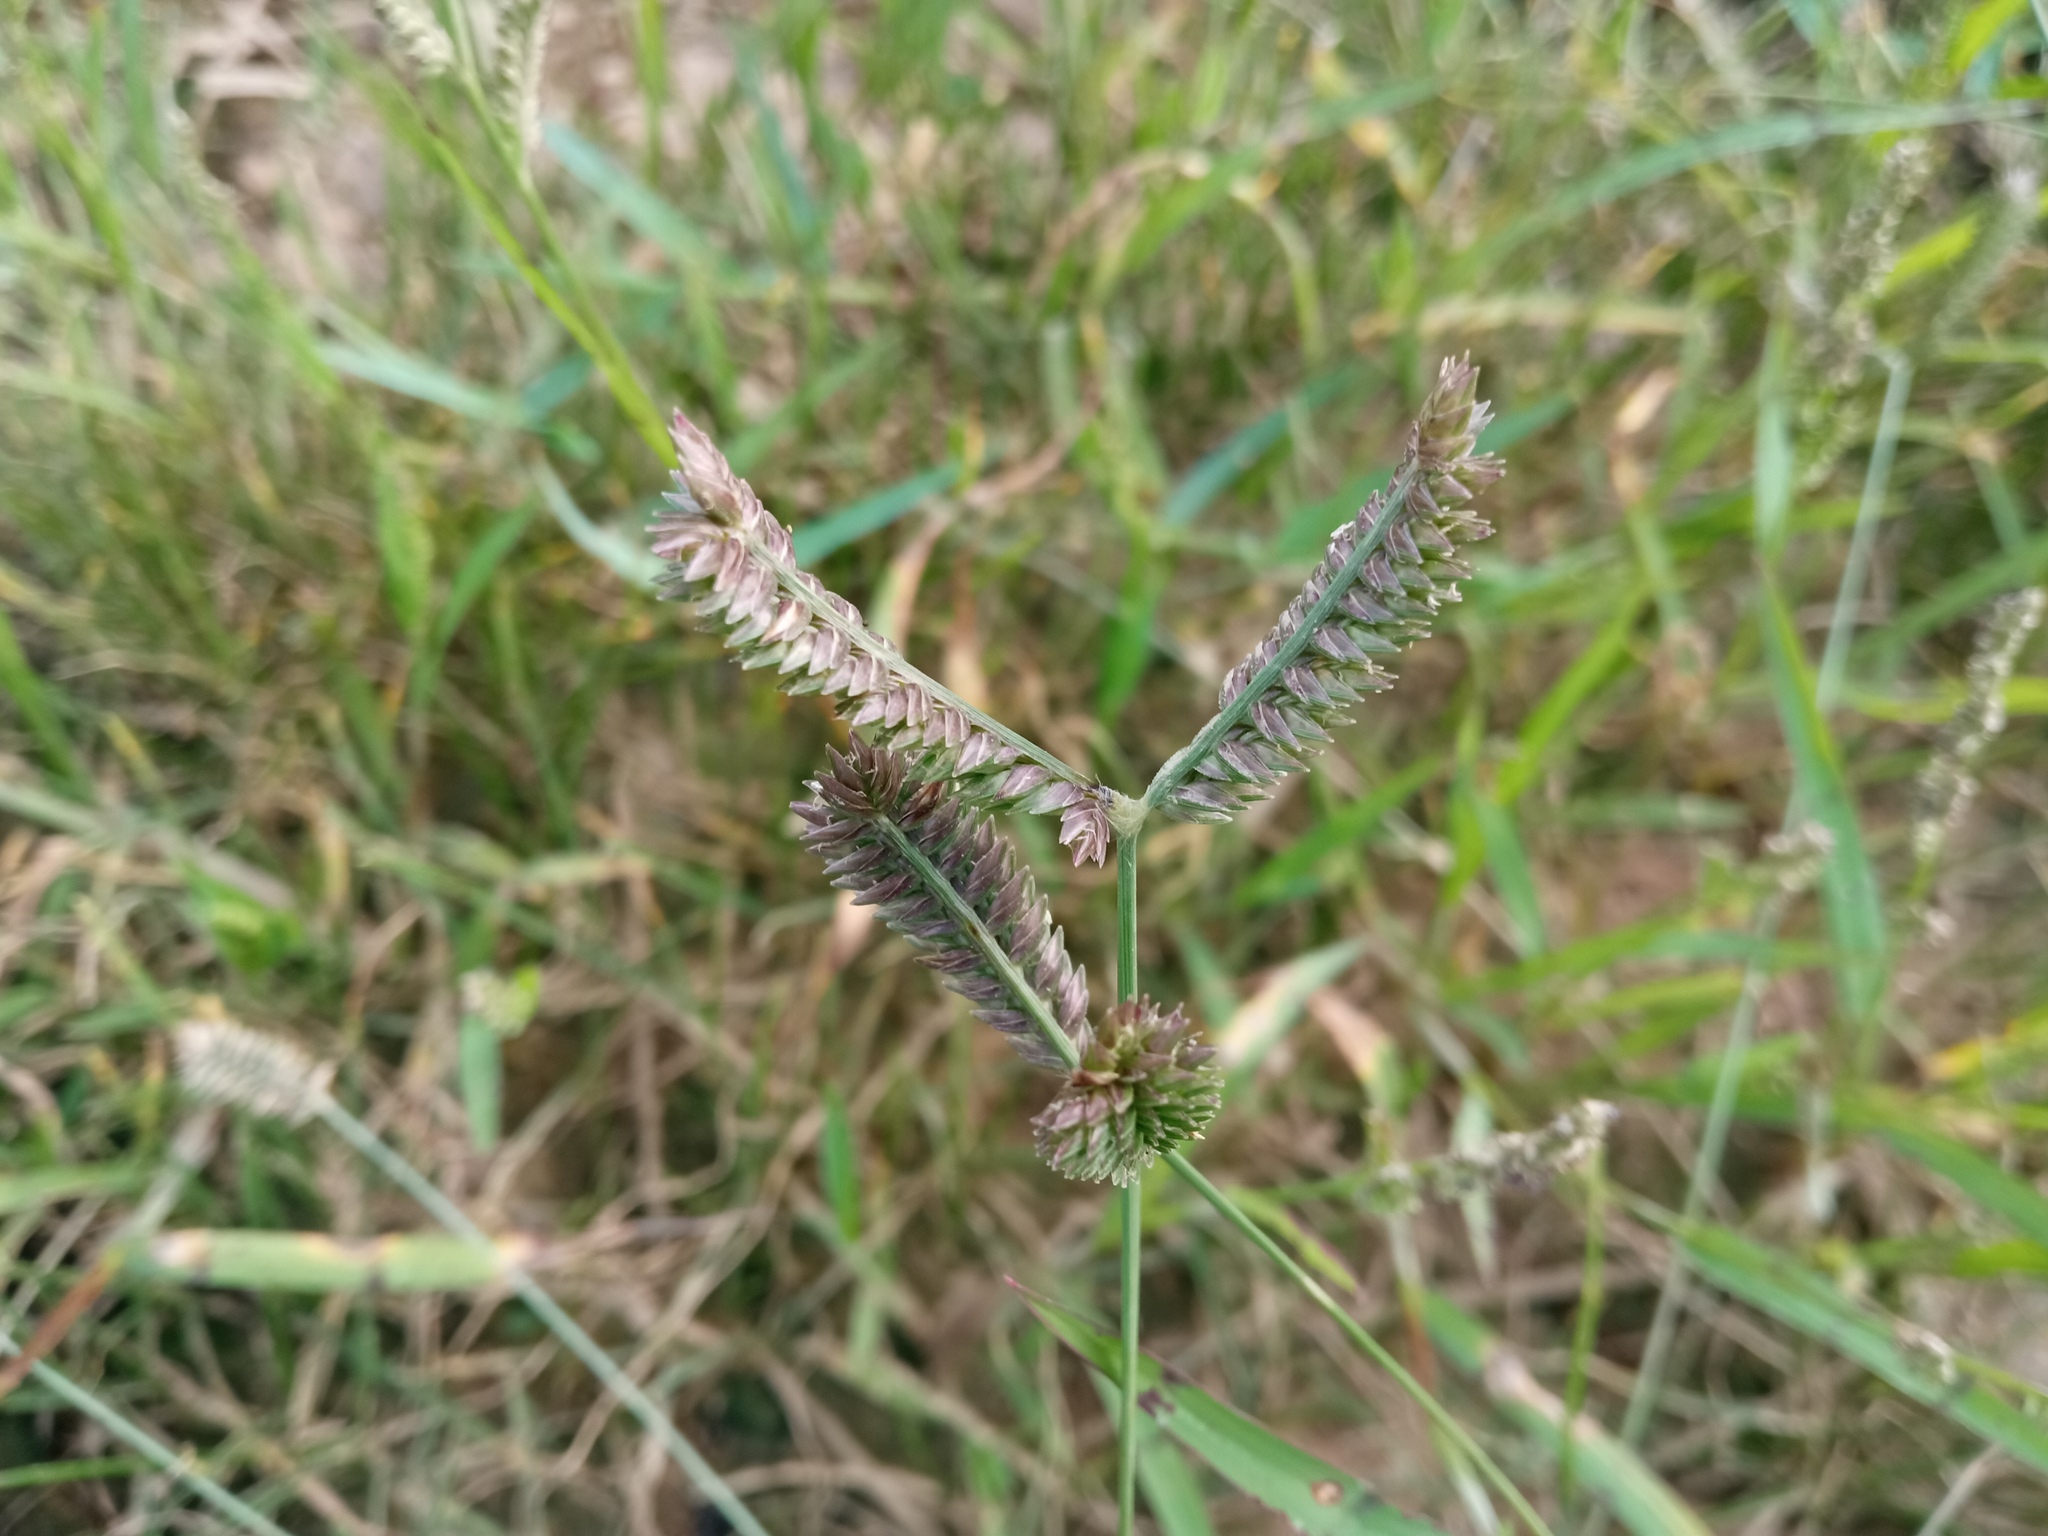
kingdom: Plantae
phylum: Tracheophyta
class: Liliopsida
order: Poales
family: Poaceae
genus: Eleusine
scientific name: Eleusine tristachya
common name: American yard-grass
